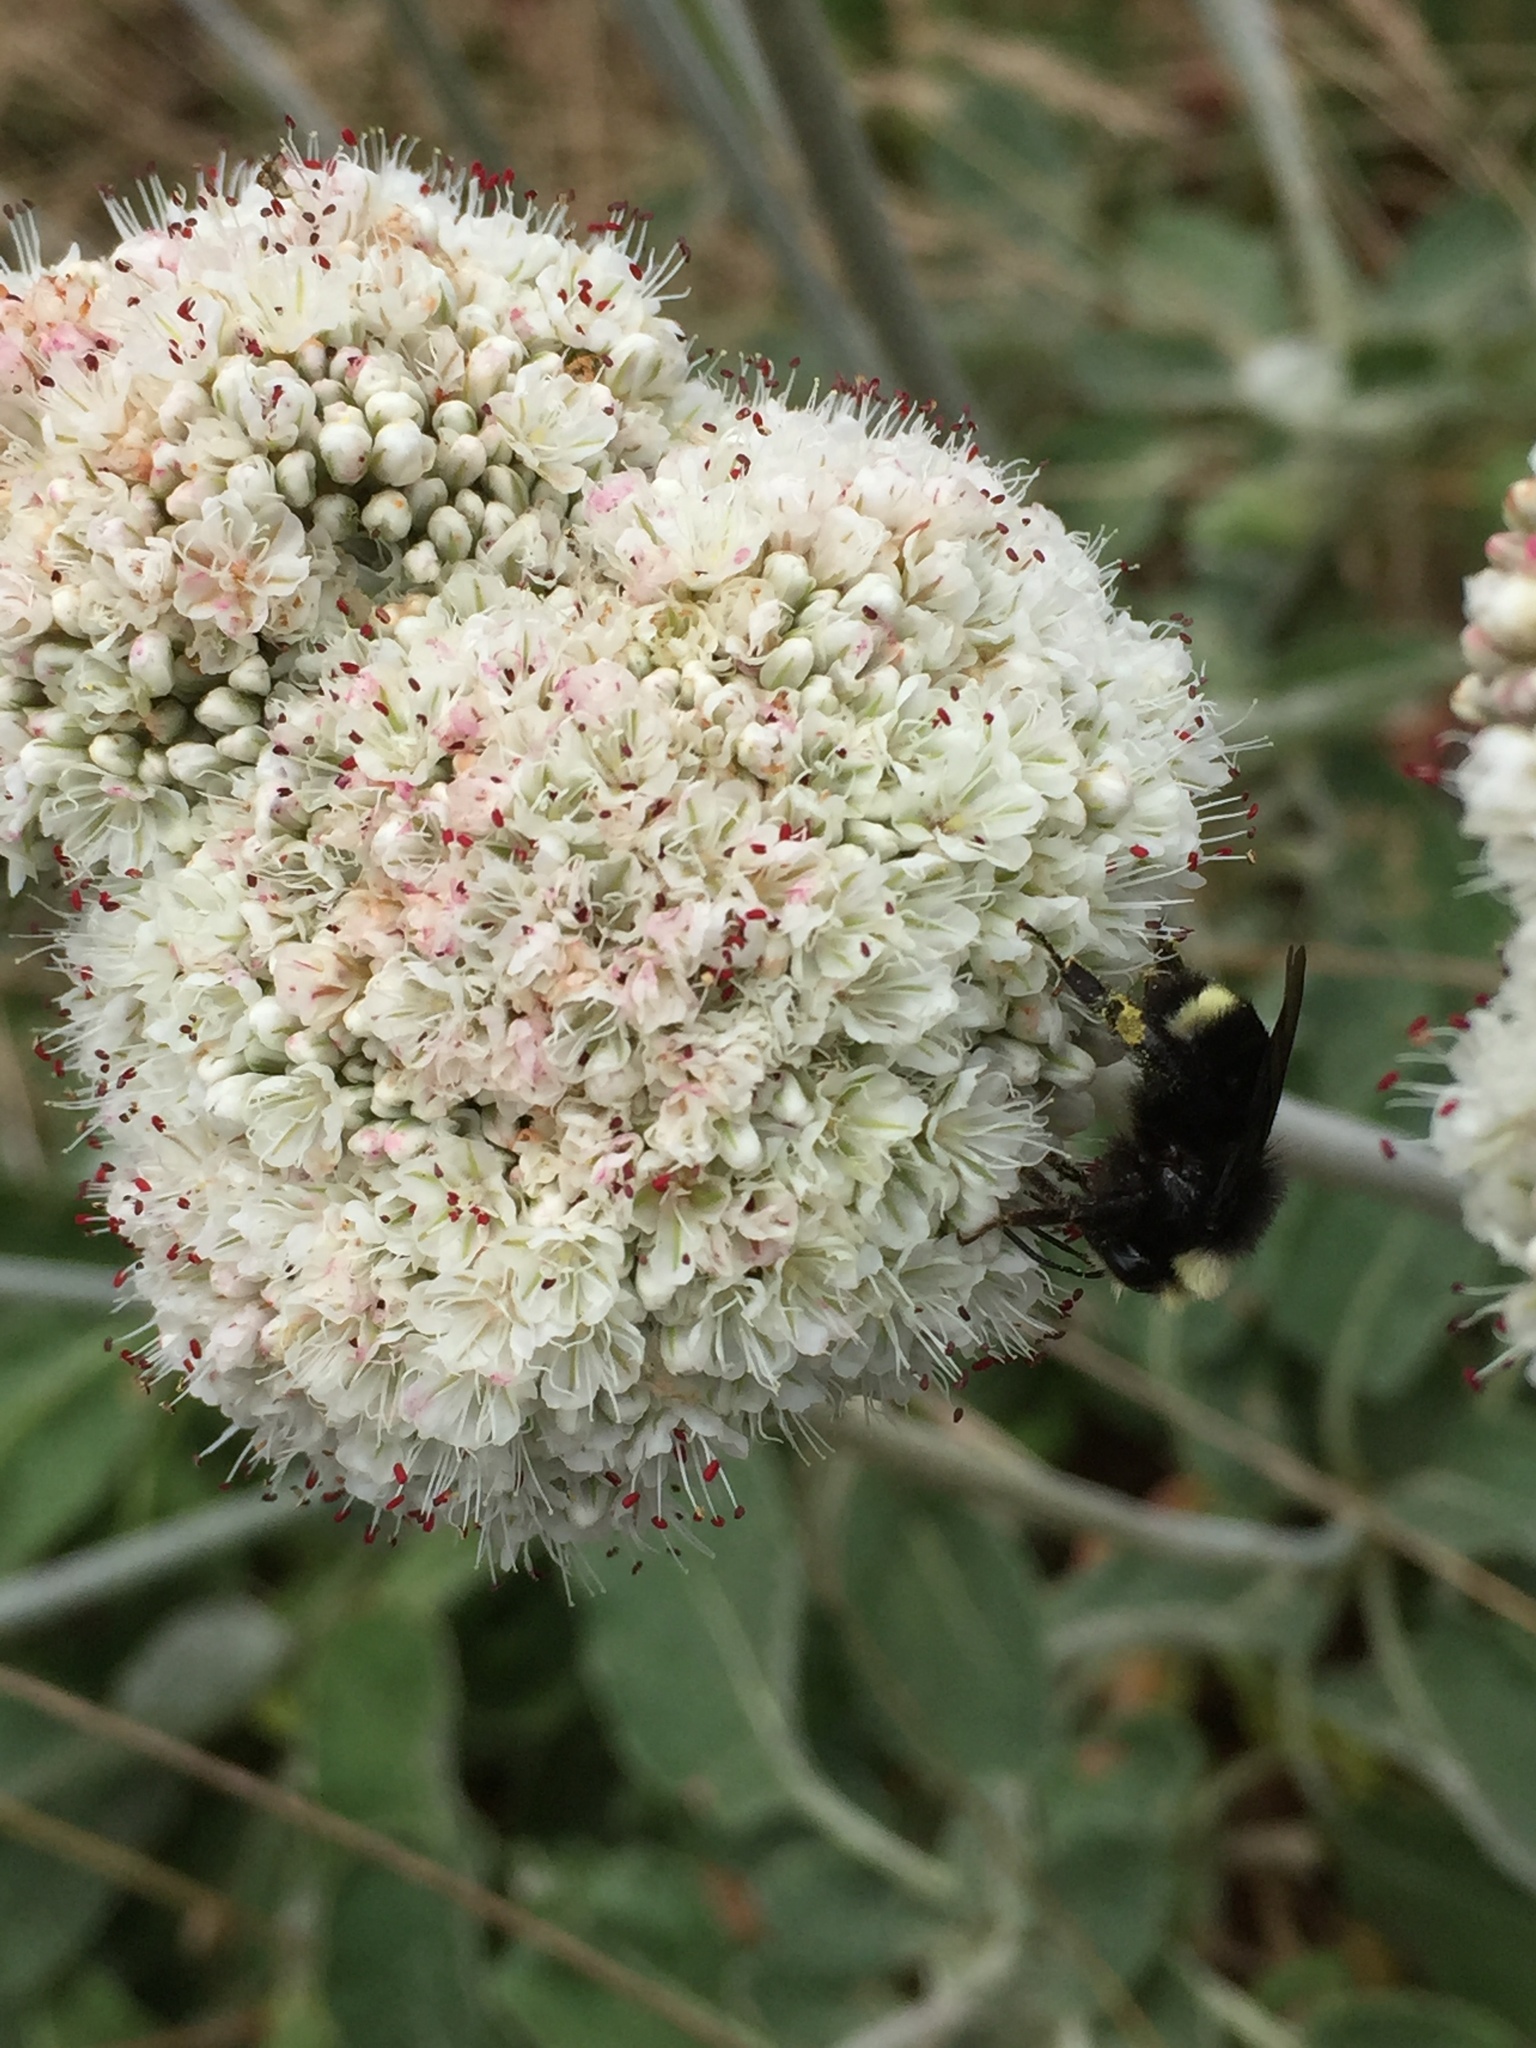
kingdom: Animalia
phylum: Arthropoda
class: Insecta
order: Hymenoptera
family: Apidae
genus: Pyrobombus
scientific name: Pyrobombus
